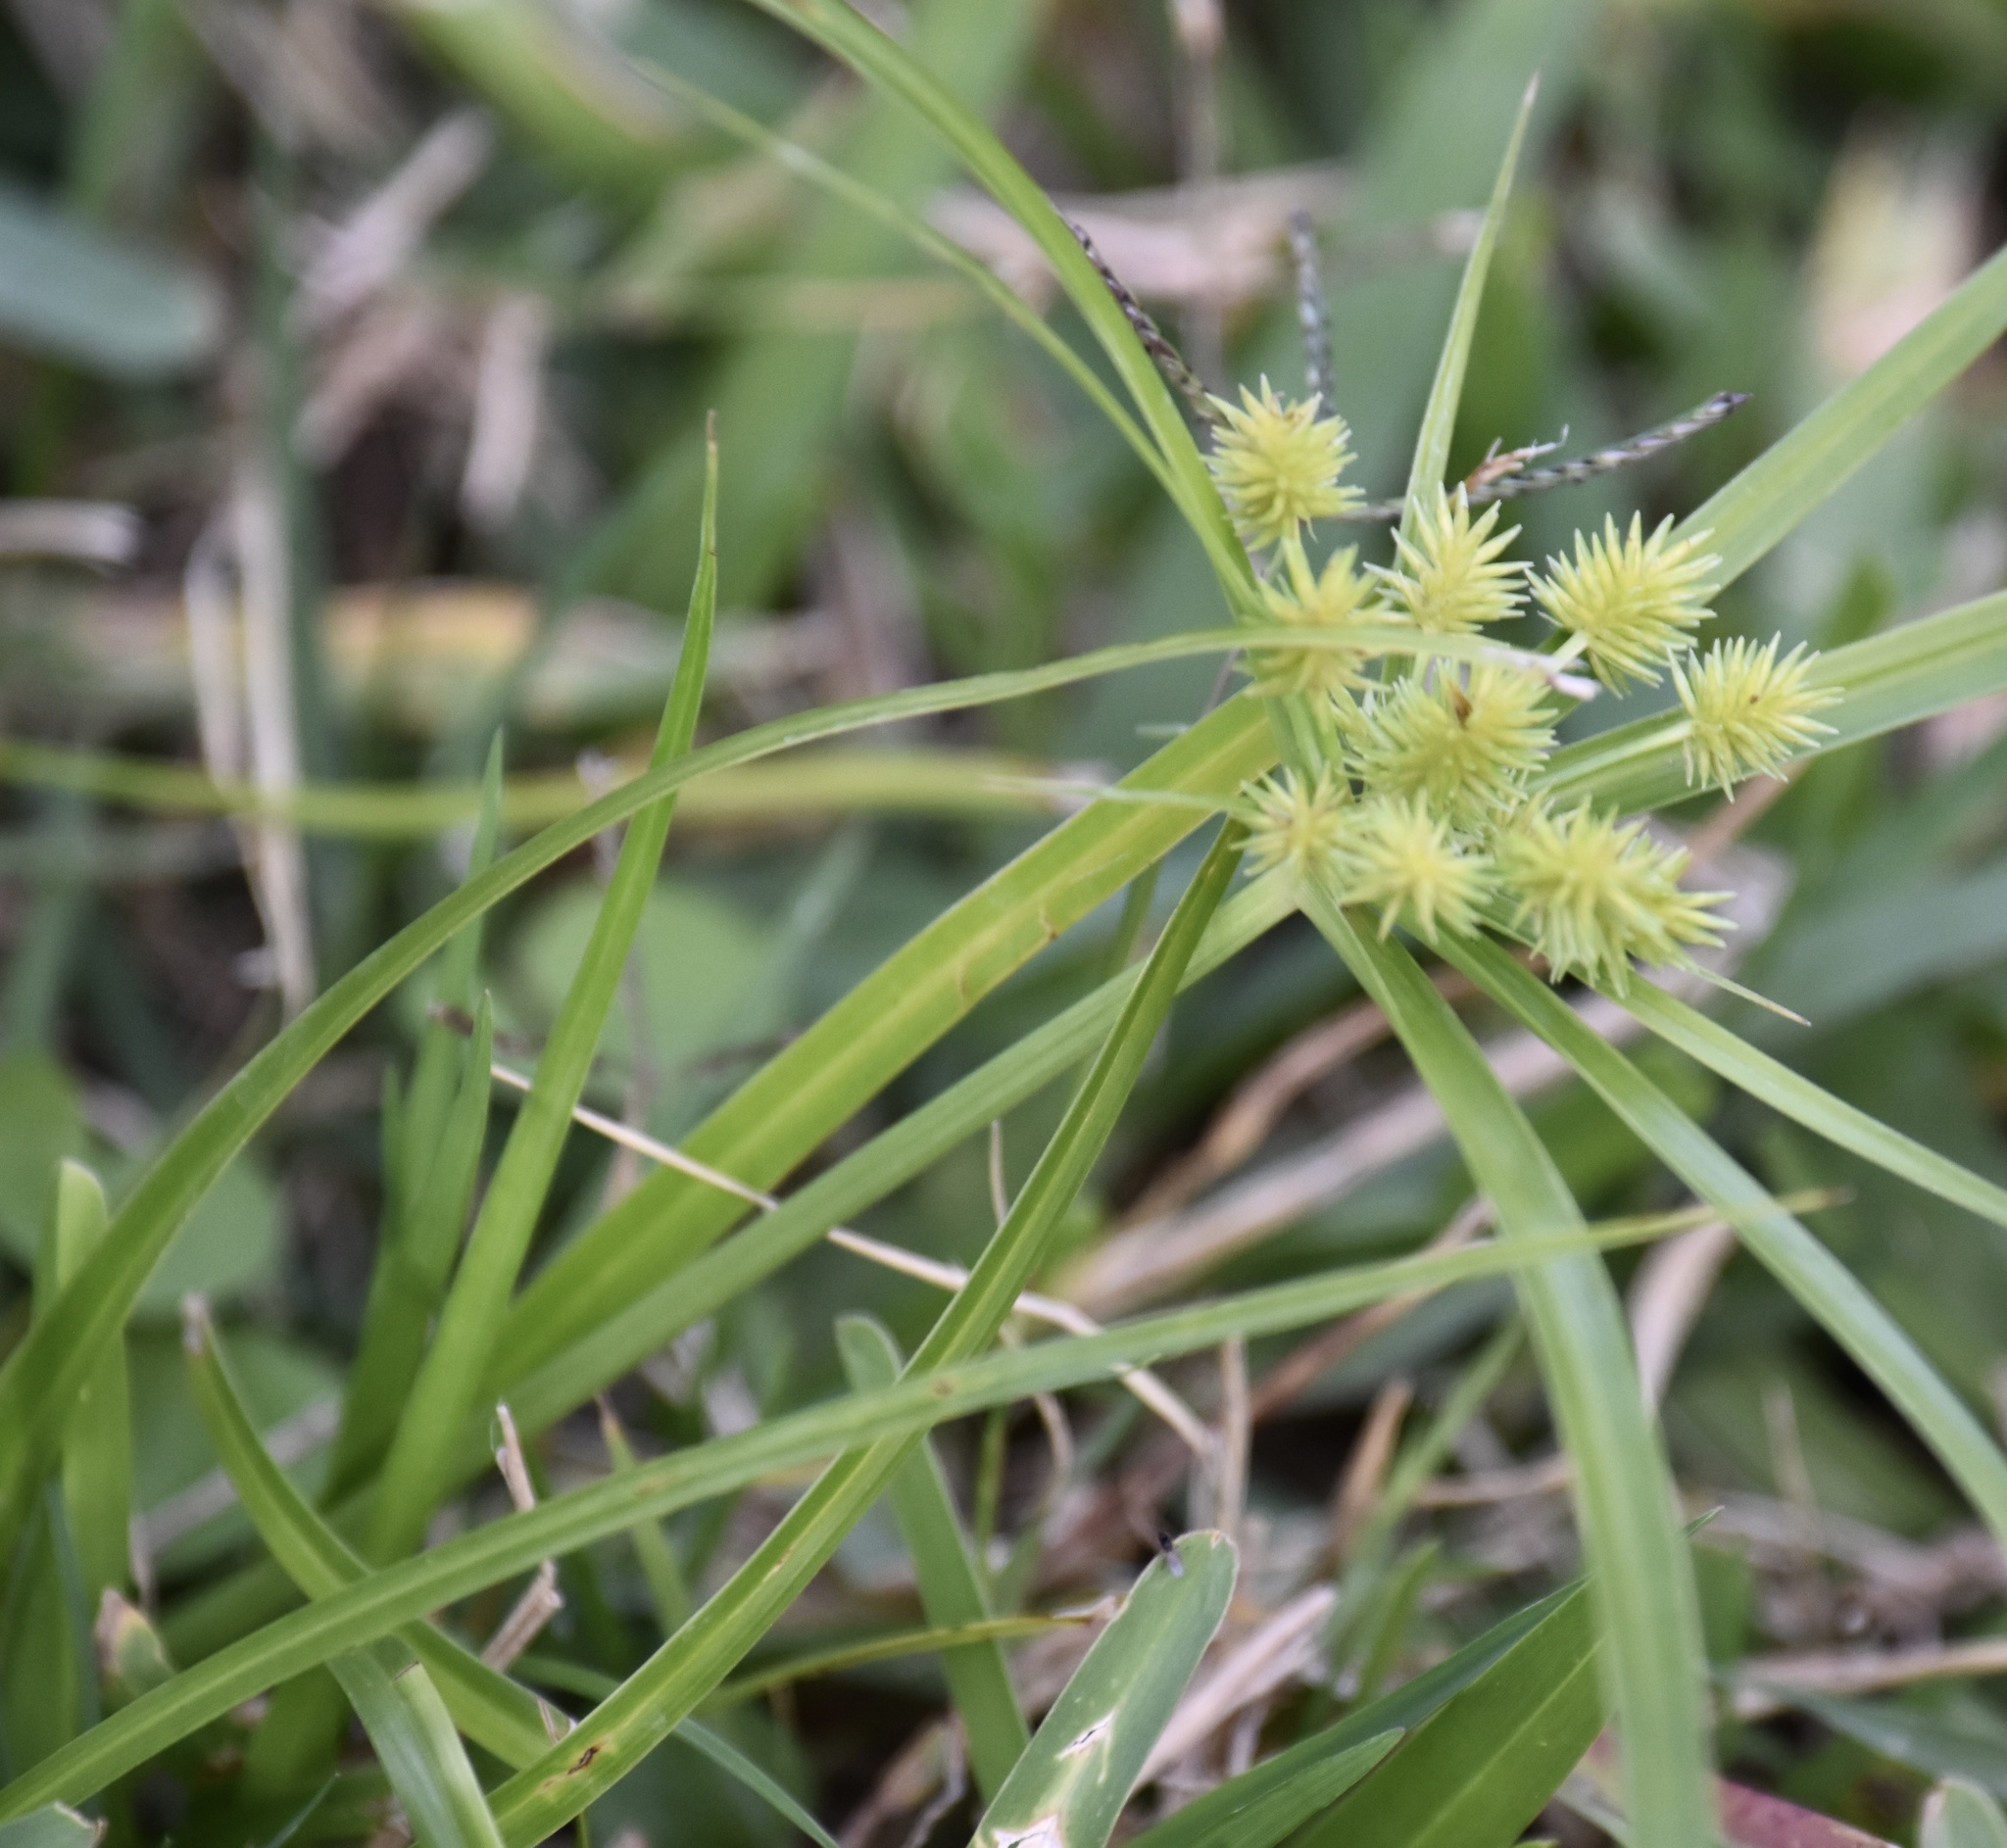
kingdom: Plantae
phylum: Tracheophyta
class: Liliopsida
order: Poales
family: Cyperaceae
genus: Cyperus
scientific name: Cyperus croceus
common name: Baldwin's flatsedge
